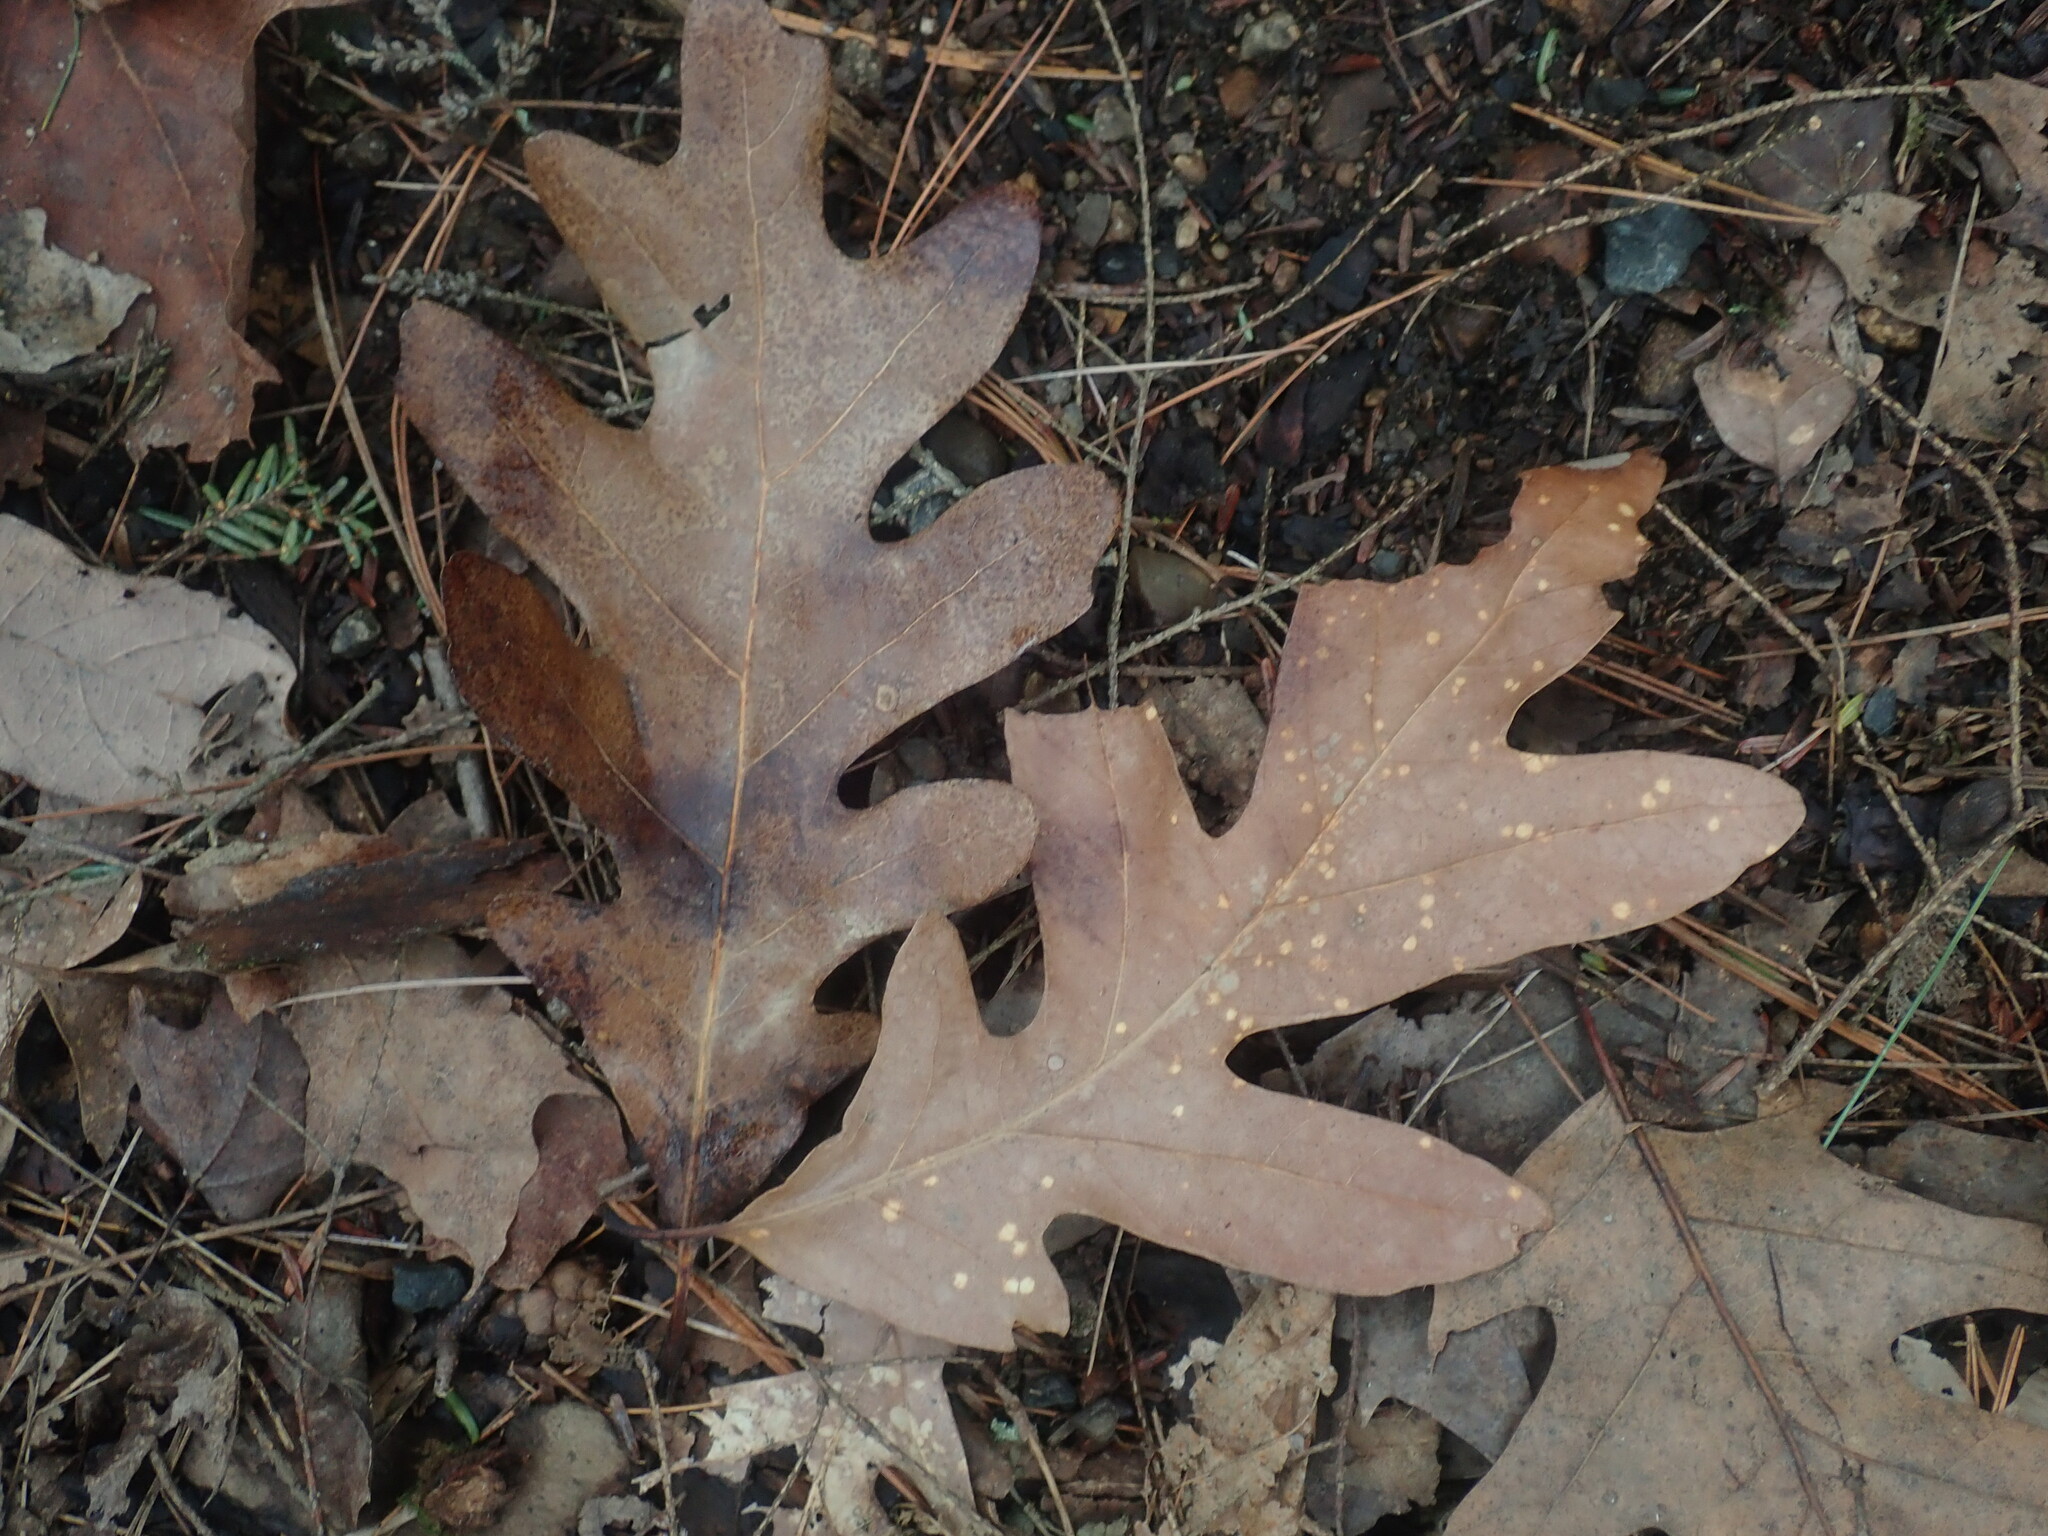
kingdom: Plantae
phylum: Tracheophyta
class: Magnoliopsida
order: Fagales
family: Fagaceae
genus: Quercus
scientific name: Quercus alba
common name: White oak
